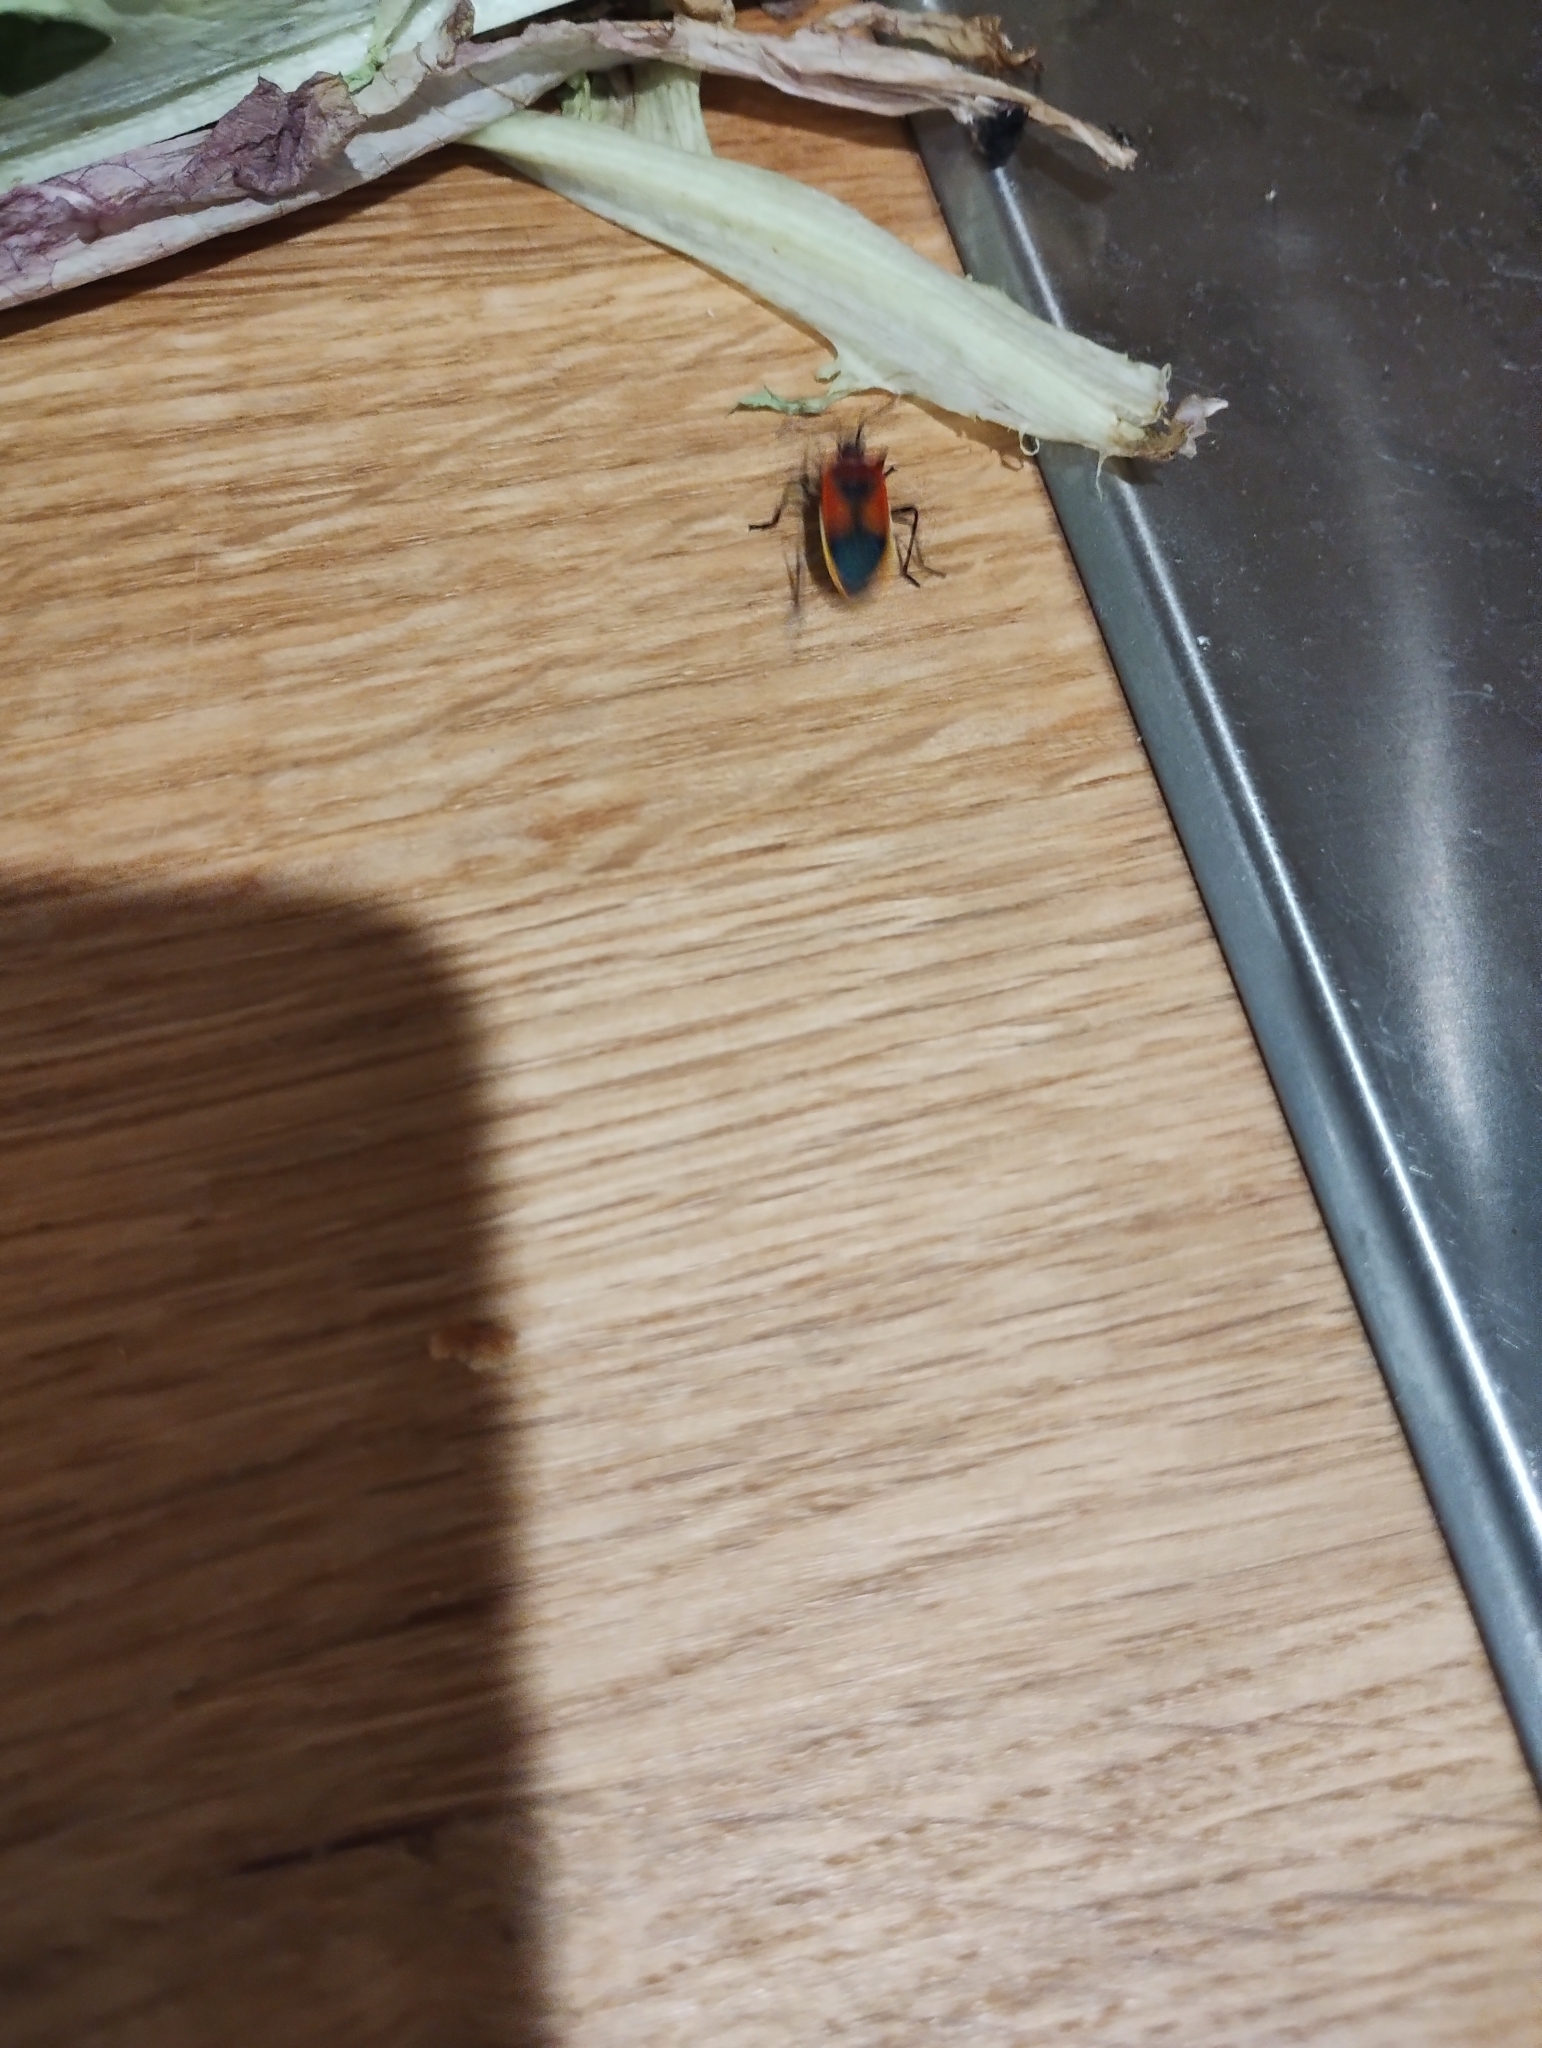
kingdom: Animalia
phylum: Arthropoda
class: Insecta
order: Hemiptera
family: Pyrrhocoridae
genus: Dindymus
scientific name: Dindymus
